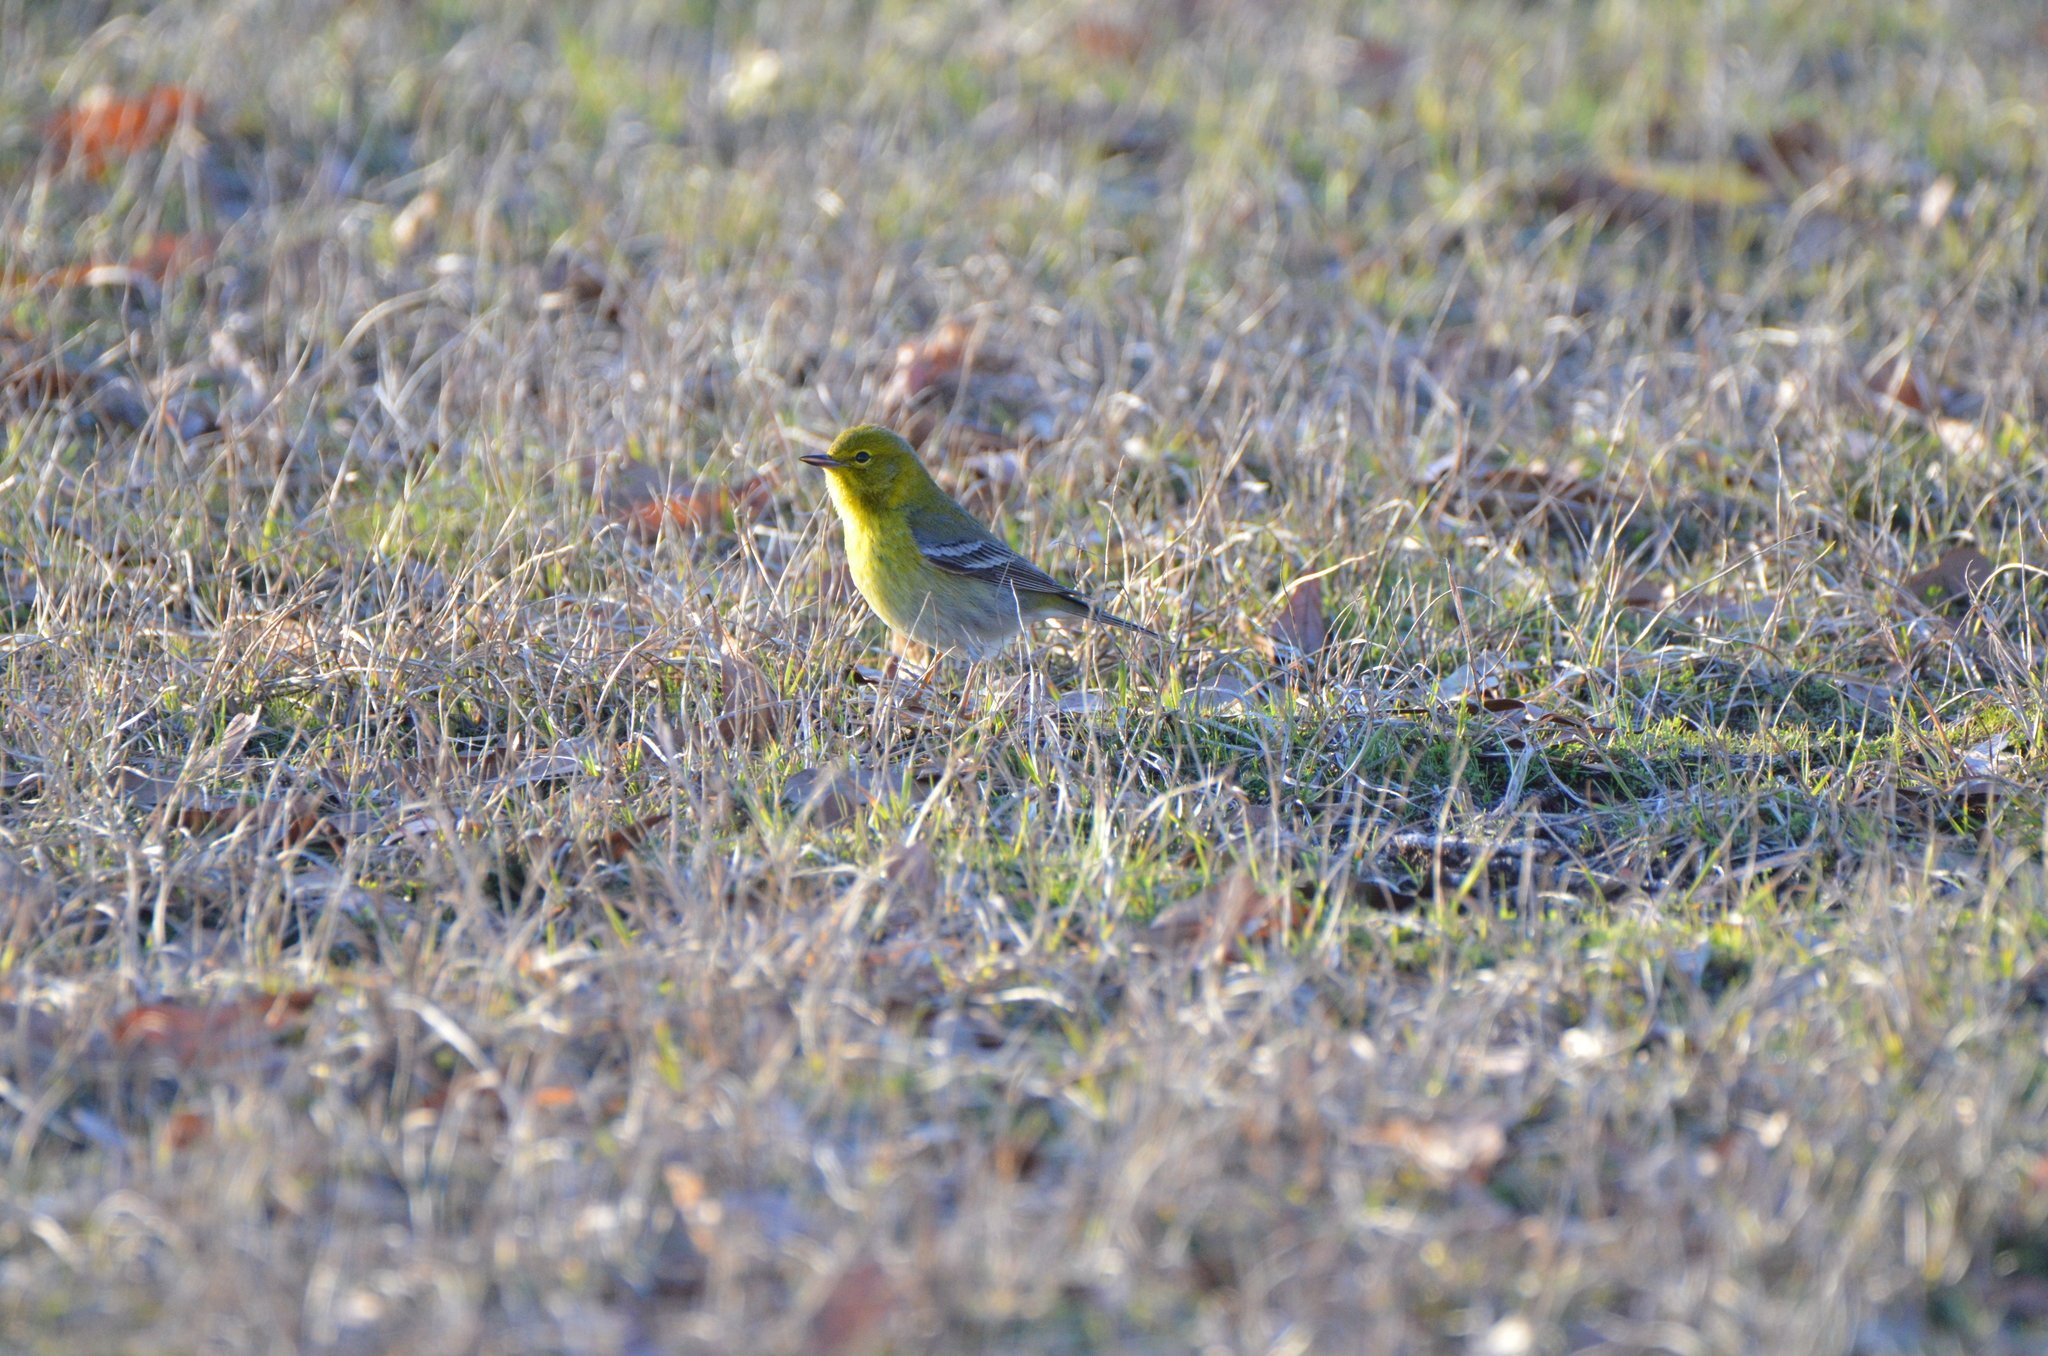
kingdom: Animalia
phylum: Chordata
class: Aves
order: Passeriformes
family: Parulidae
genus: Setophaga
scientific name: Setophaga pinus
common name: Pine warbler
